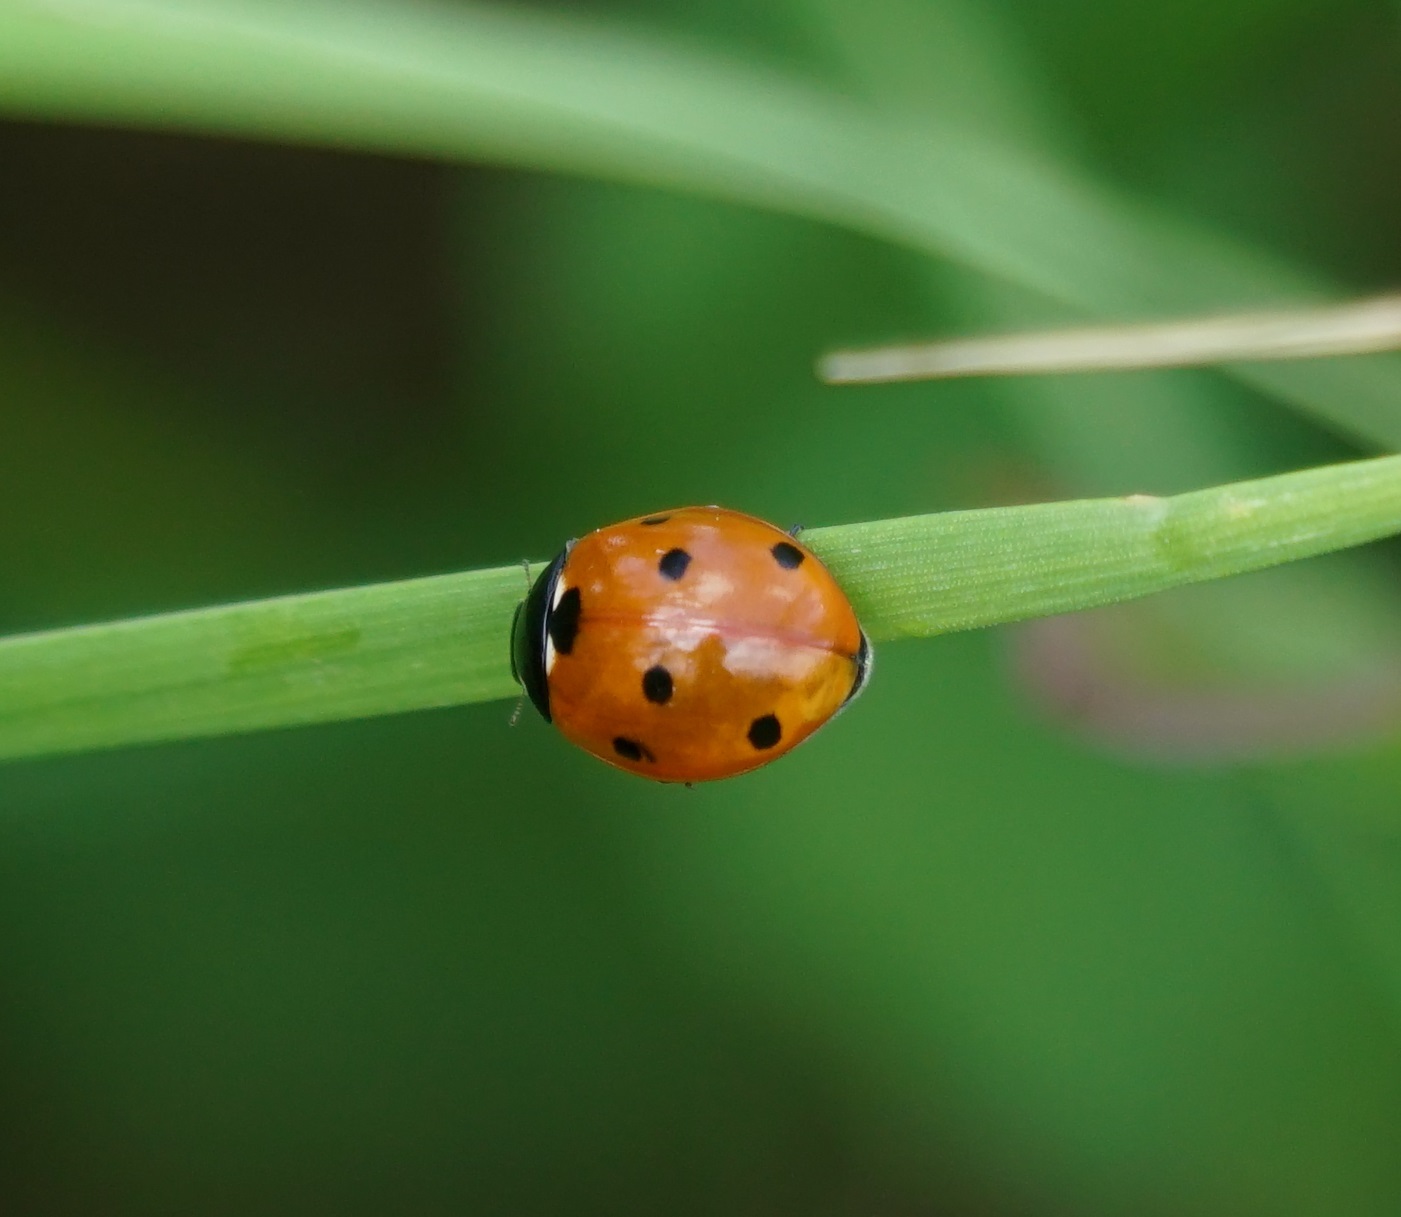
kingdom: Animalia
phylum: Arthropoda
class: Insecta
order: Coleoptera
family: Coccinellidae
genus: Coccinella
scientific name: Coccinella septempunctata
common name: Sevenspotted lady beetle
